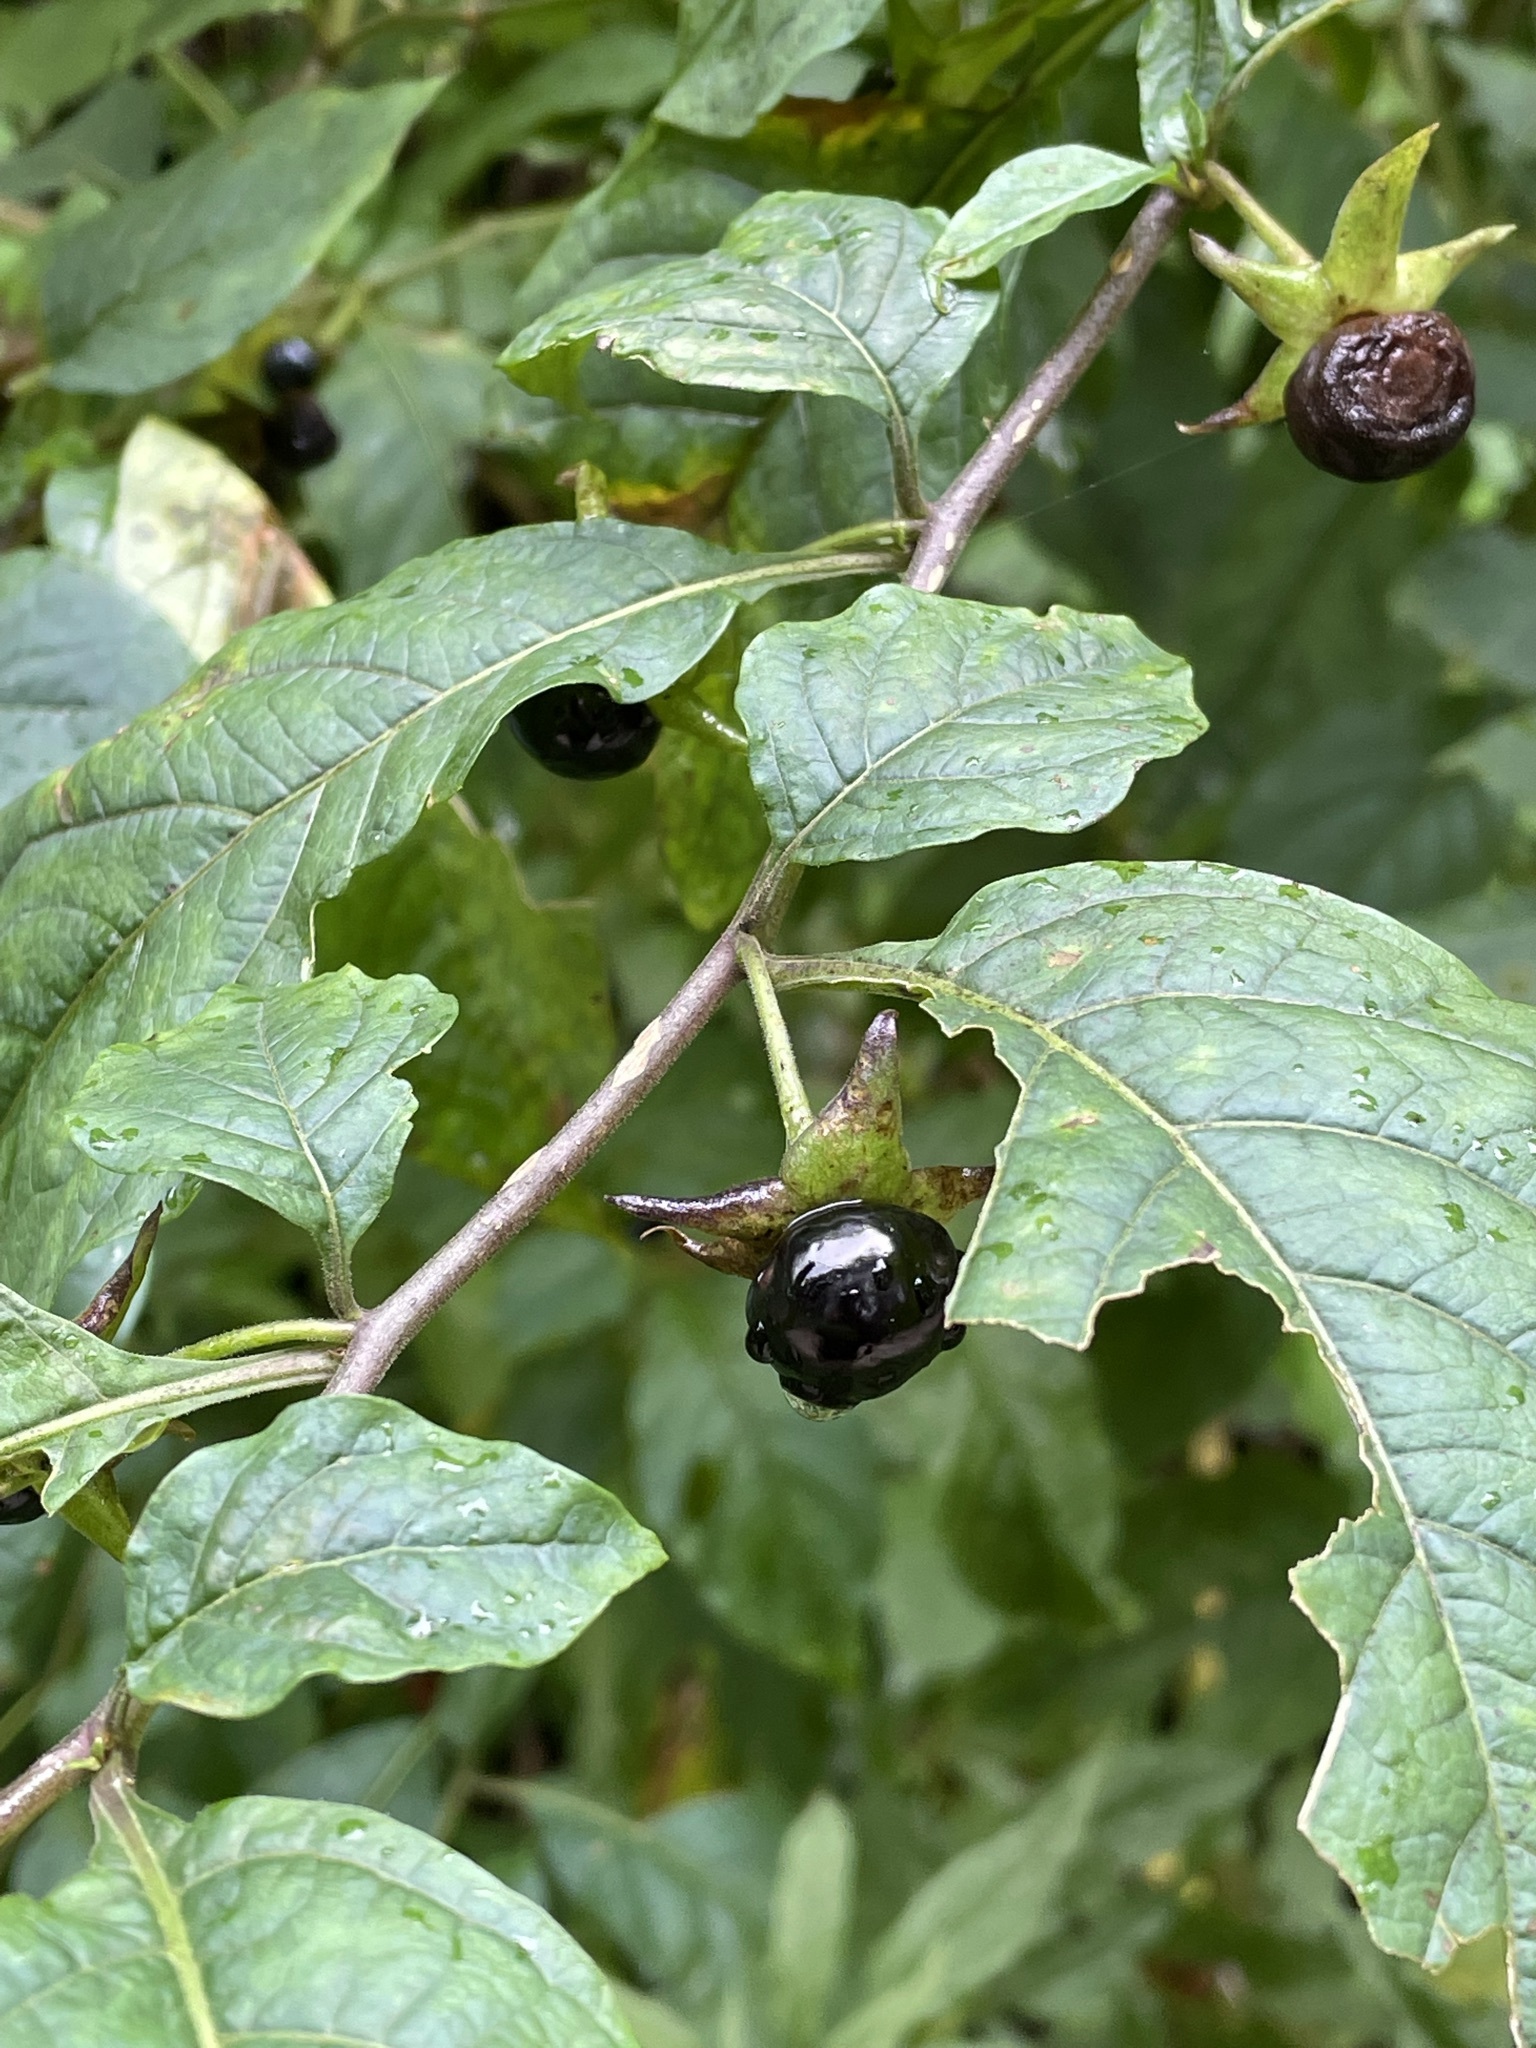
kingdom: Plantae
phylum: Tracheophyta
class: Magnoliopsida
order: Solanales
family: Solanaceae
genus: Atropa
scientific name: Atropa belladonna
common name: Deadly nightshade
